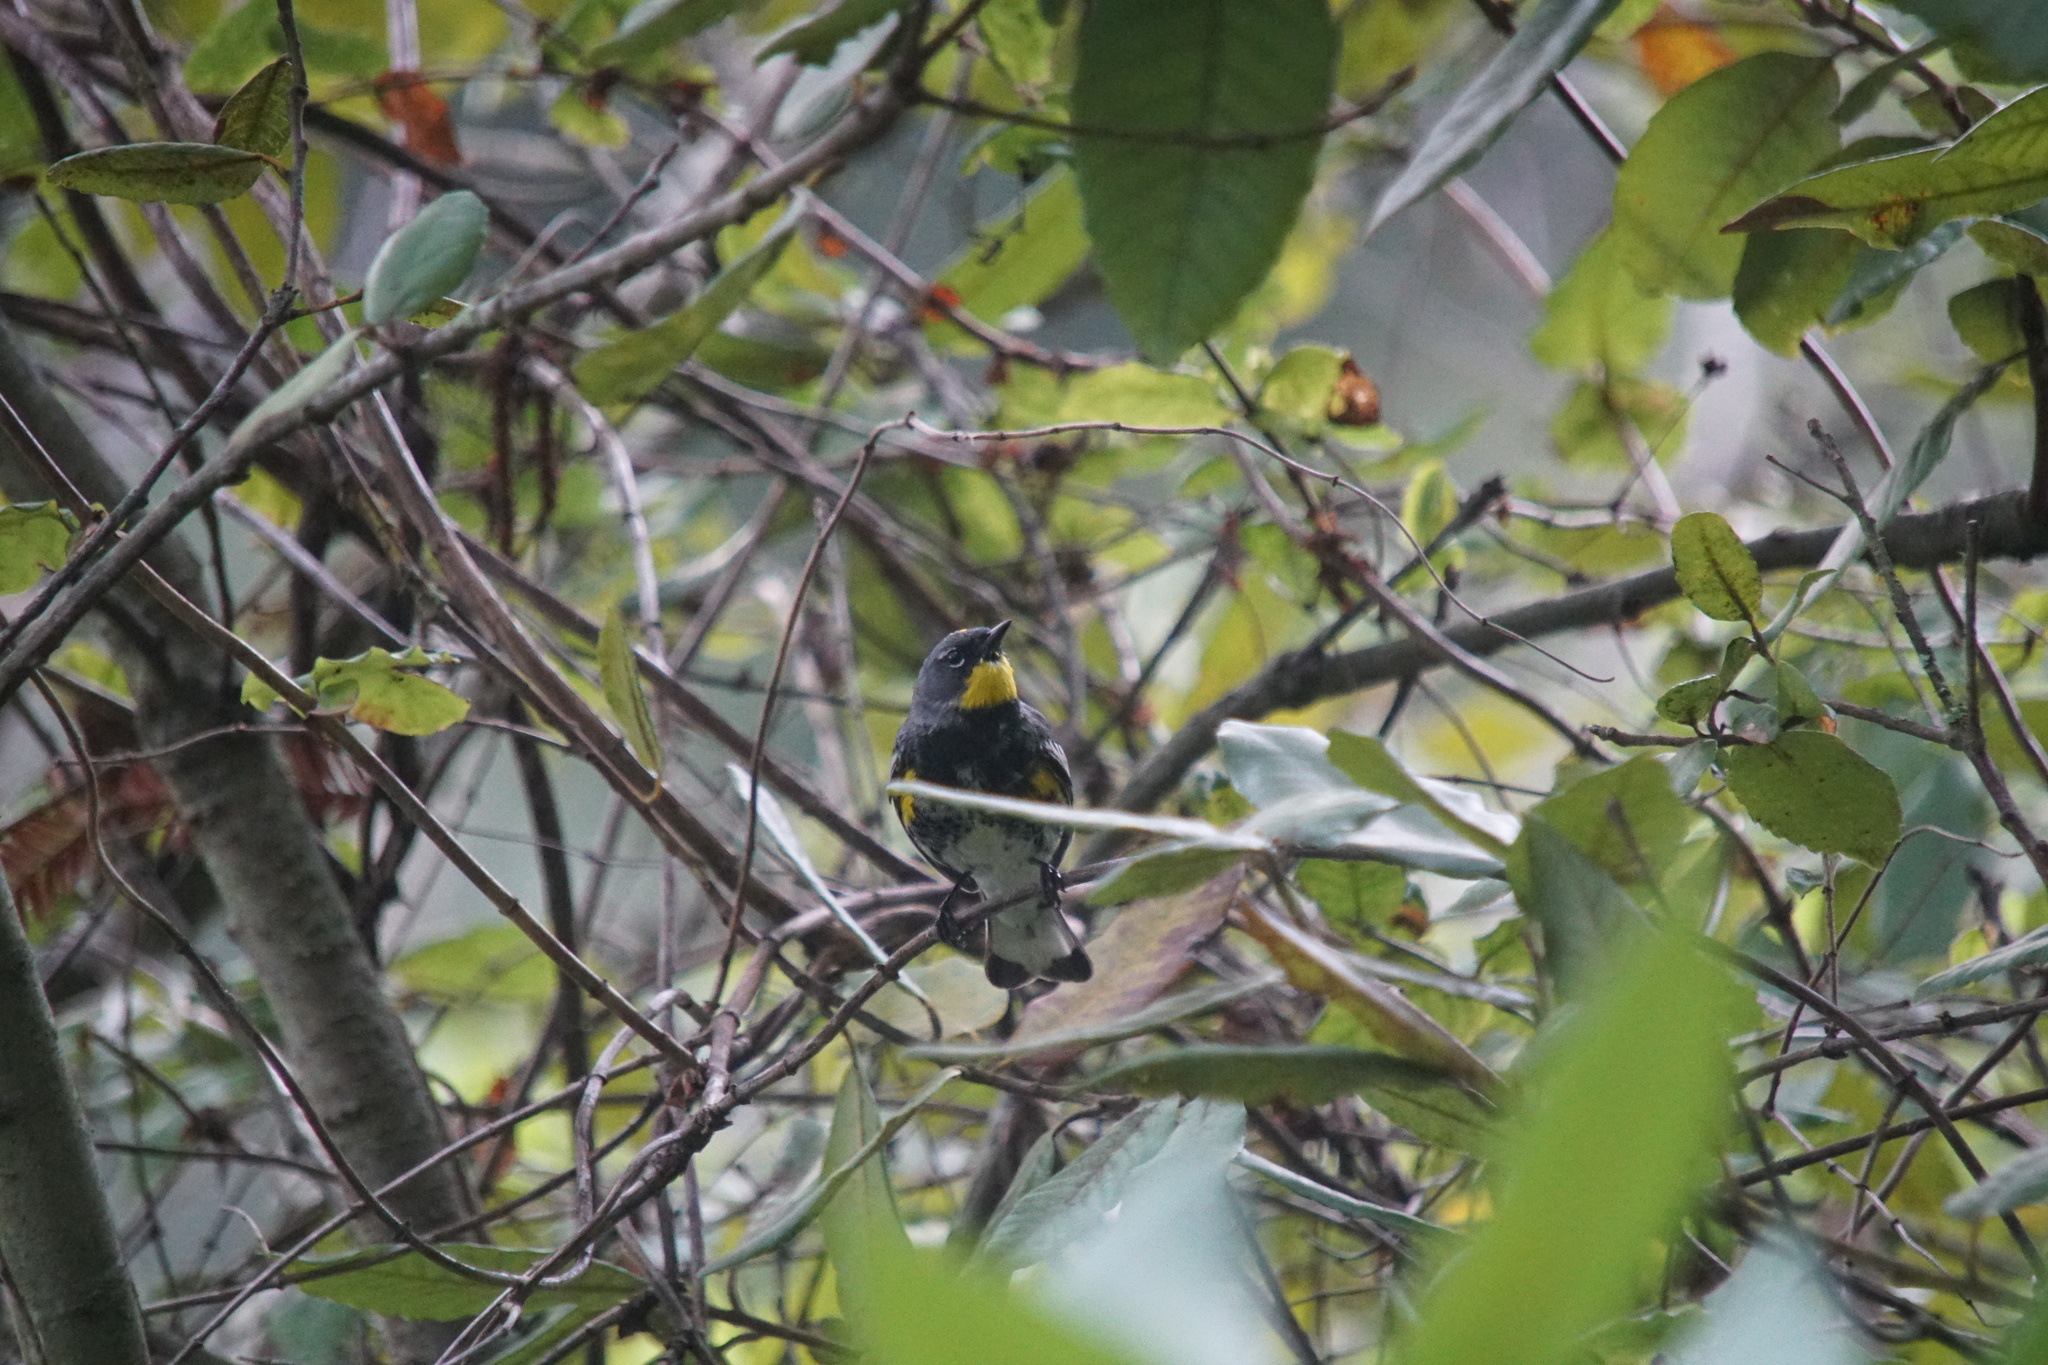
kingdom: Animalia
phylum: Chordata
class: Aves
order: Passeriformes
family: Parulidae
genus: Setophaga
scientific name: Setophaga coronata
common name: Myrtle warbler
